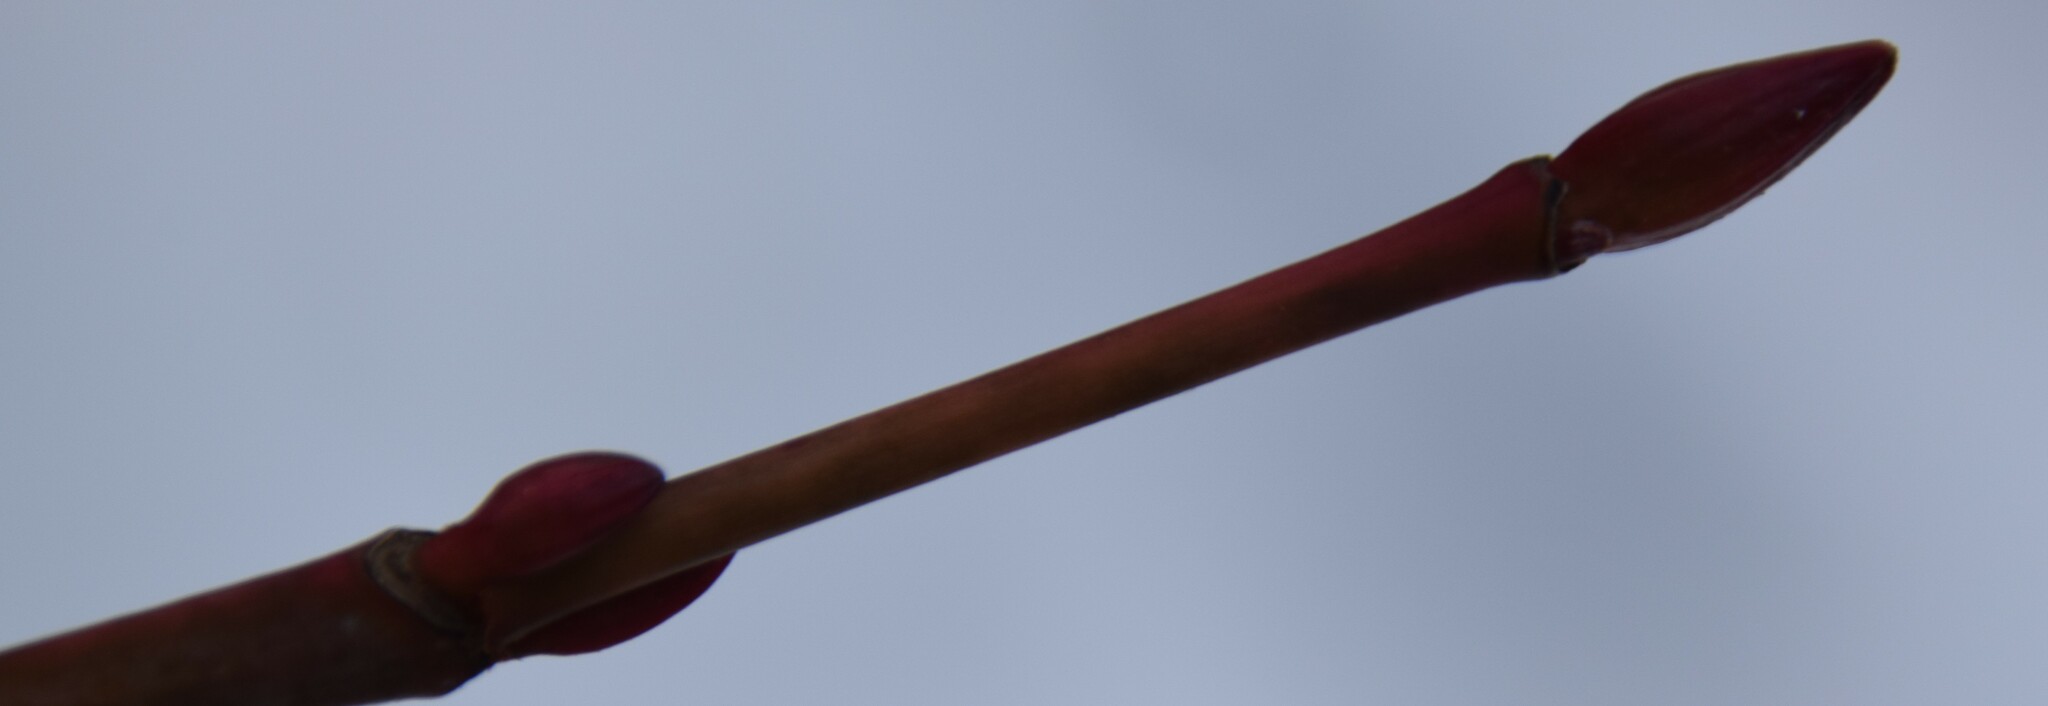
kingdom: Plantae
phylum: Tracheophyta
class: Magnoliopsida
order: Sapindales
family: Sapindaceae
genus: Acer
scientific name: Acer pensylvanicum
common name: Moosewood
